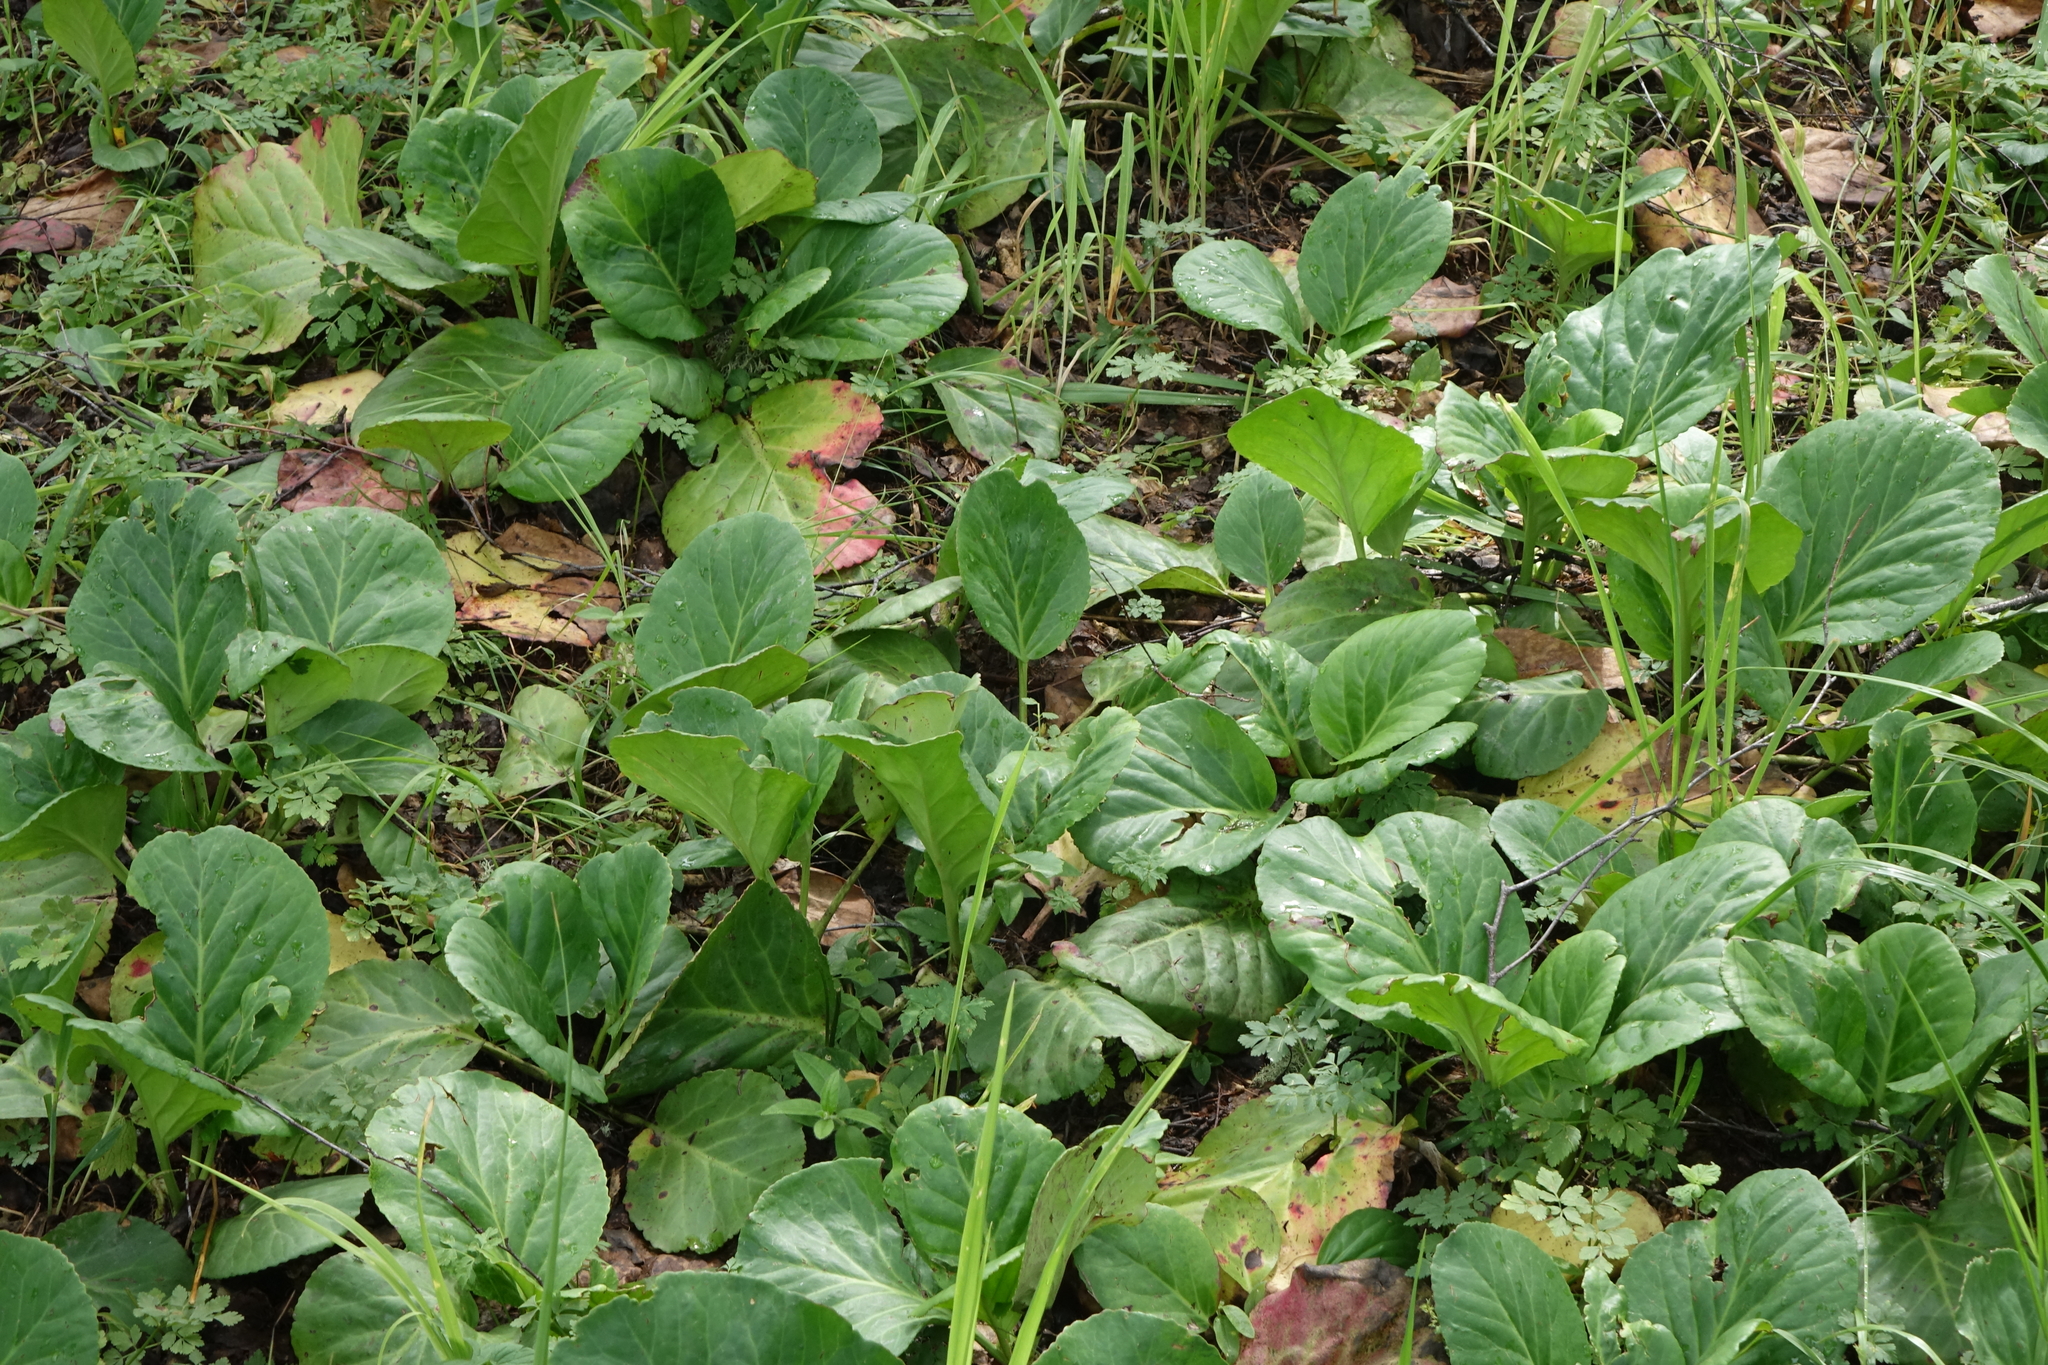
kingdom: Plantae
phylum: Tracheophyta
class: Magnoliopsida
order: Saxifragales
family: Saxifragaceae
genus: Bergenia
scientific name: Bergenia crassifolia
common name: Elephant-ears
